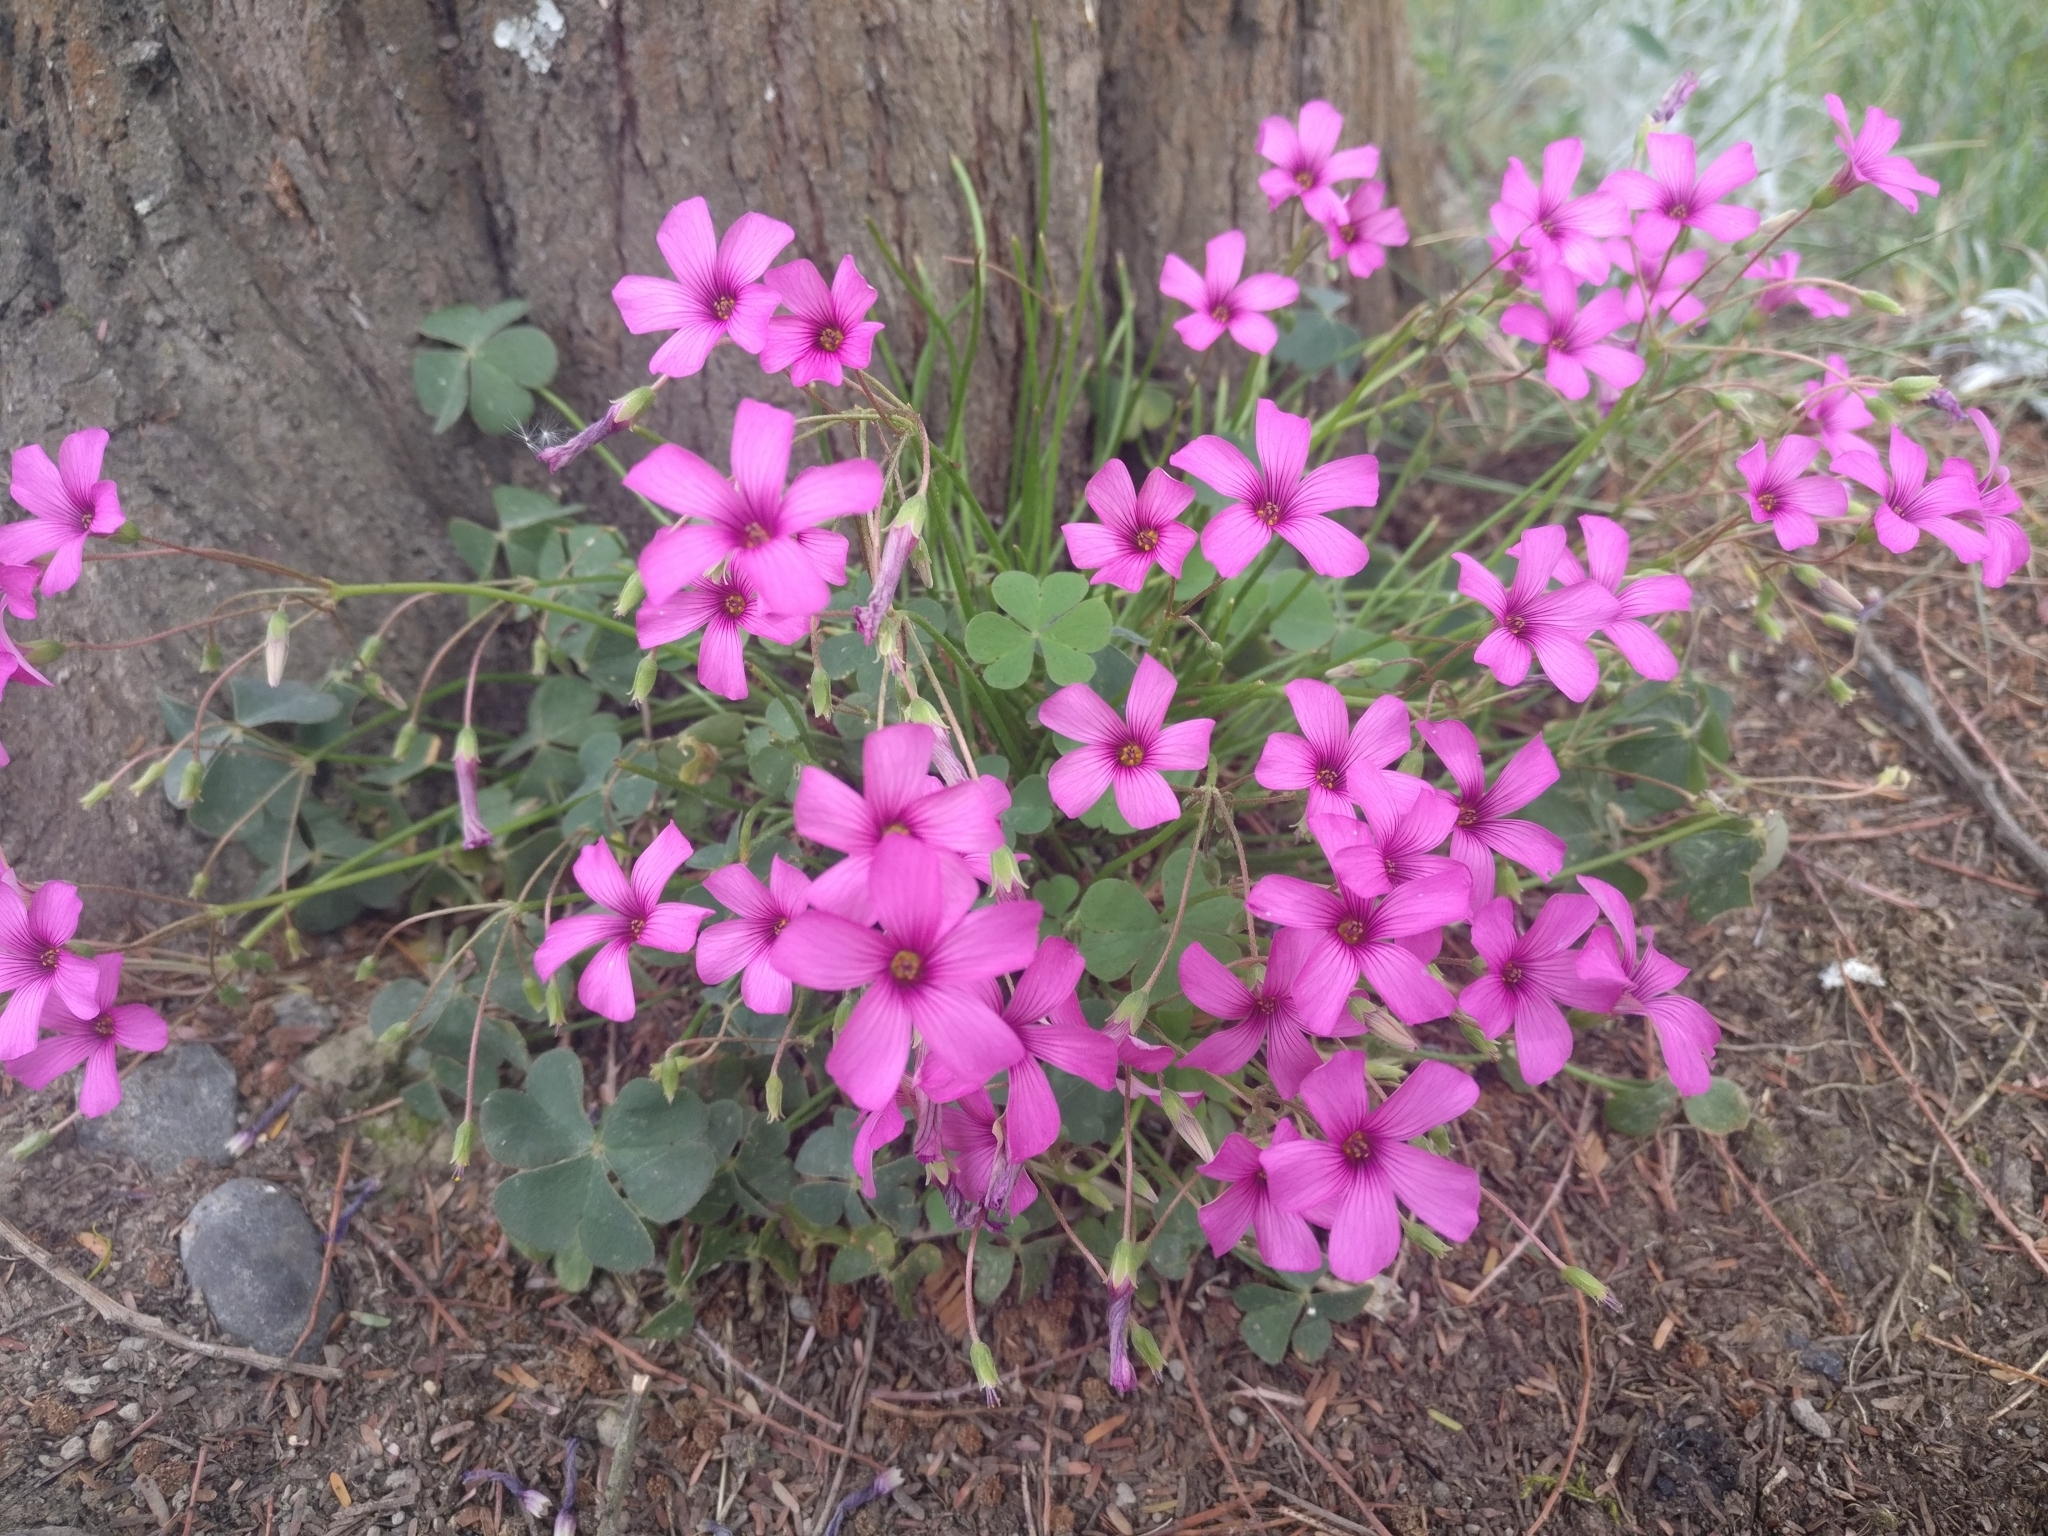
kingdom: Plantae
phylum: Tracheophyta
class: Magnoliopsida
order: Oxalidales
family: Oxalidaceae
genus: Oxalis
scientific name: Oxalis articulata
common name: Pink-sorrel
